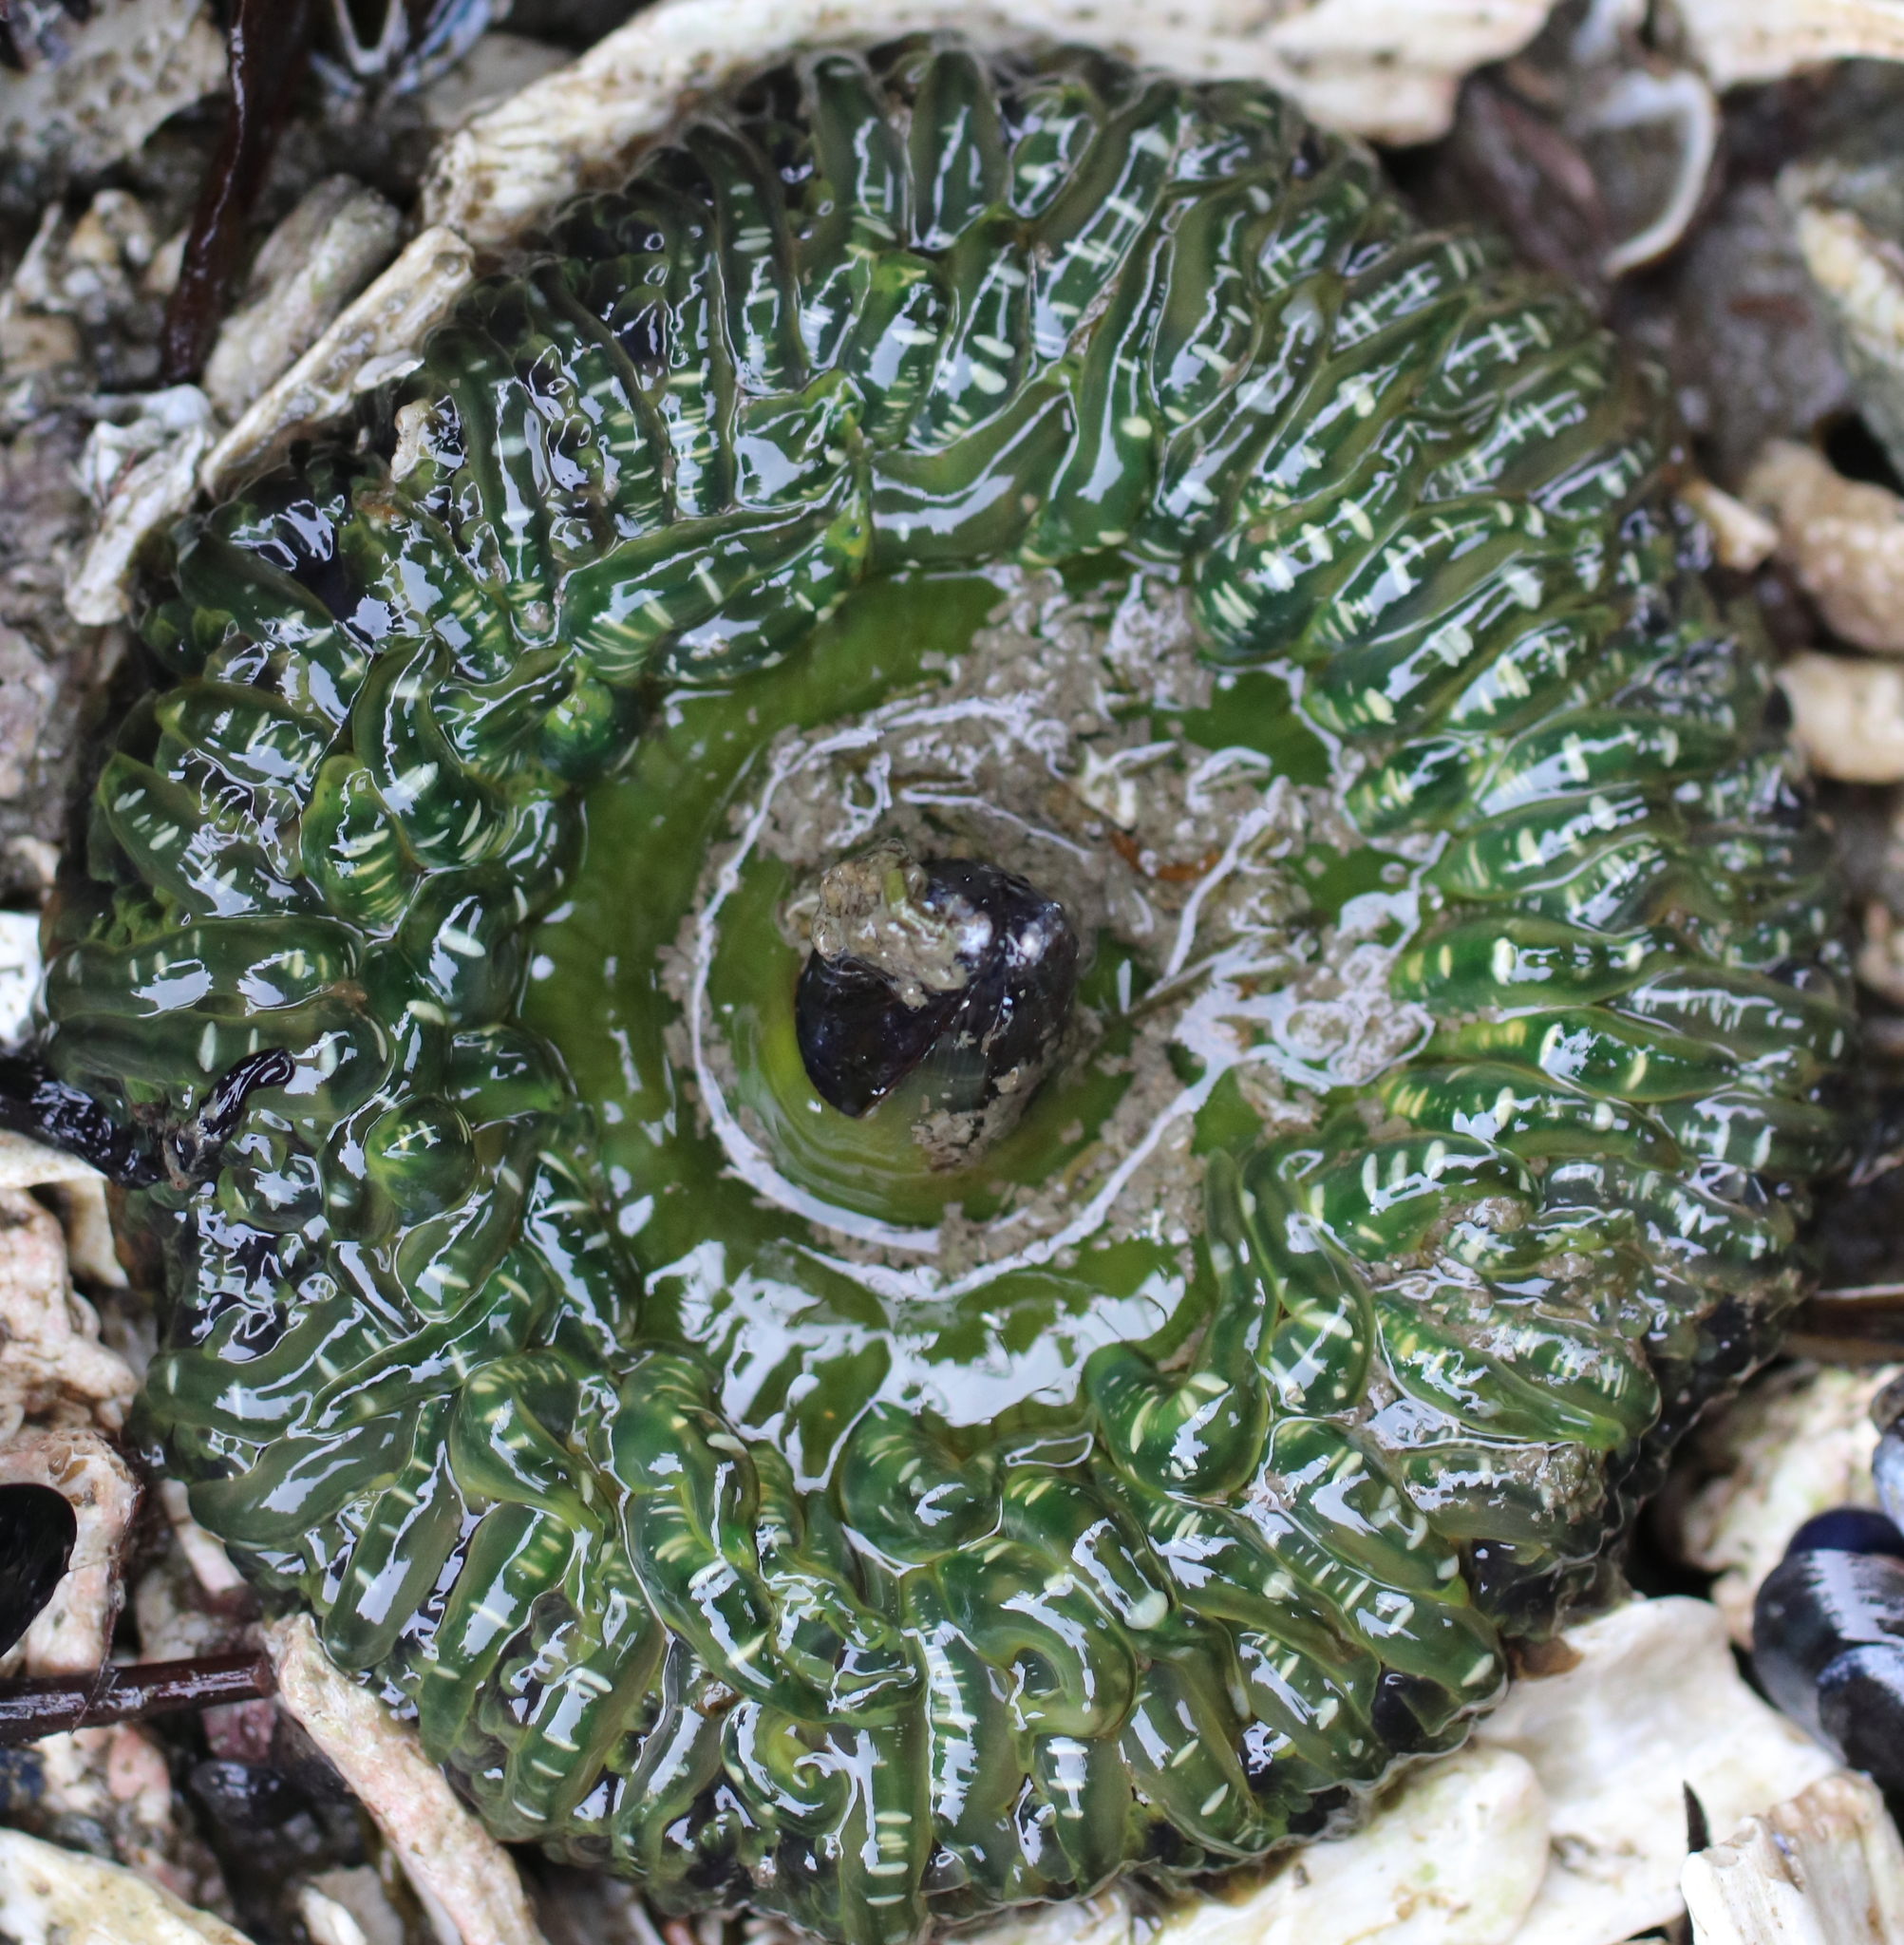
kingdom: Animalia
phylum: Cnidaria
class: Anthozoa
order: Actiniaria
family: Actiniidae
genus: Anthopleura
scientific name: Anthopleura artemisia
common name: Buried sea anemone
